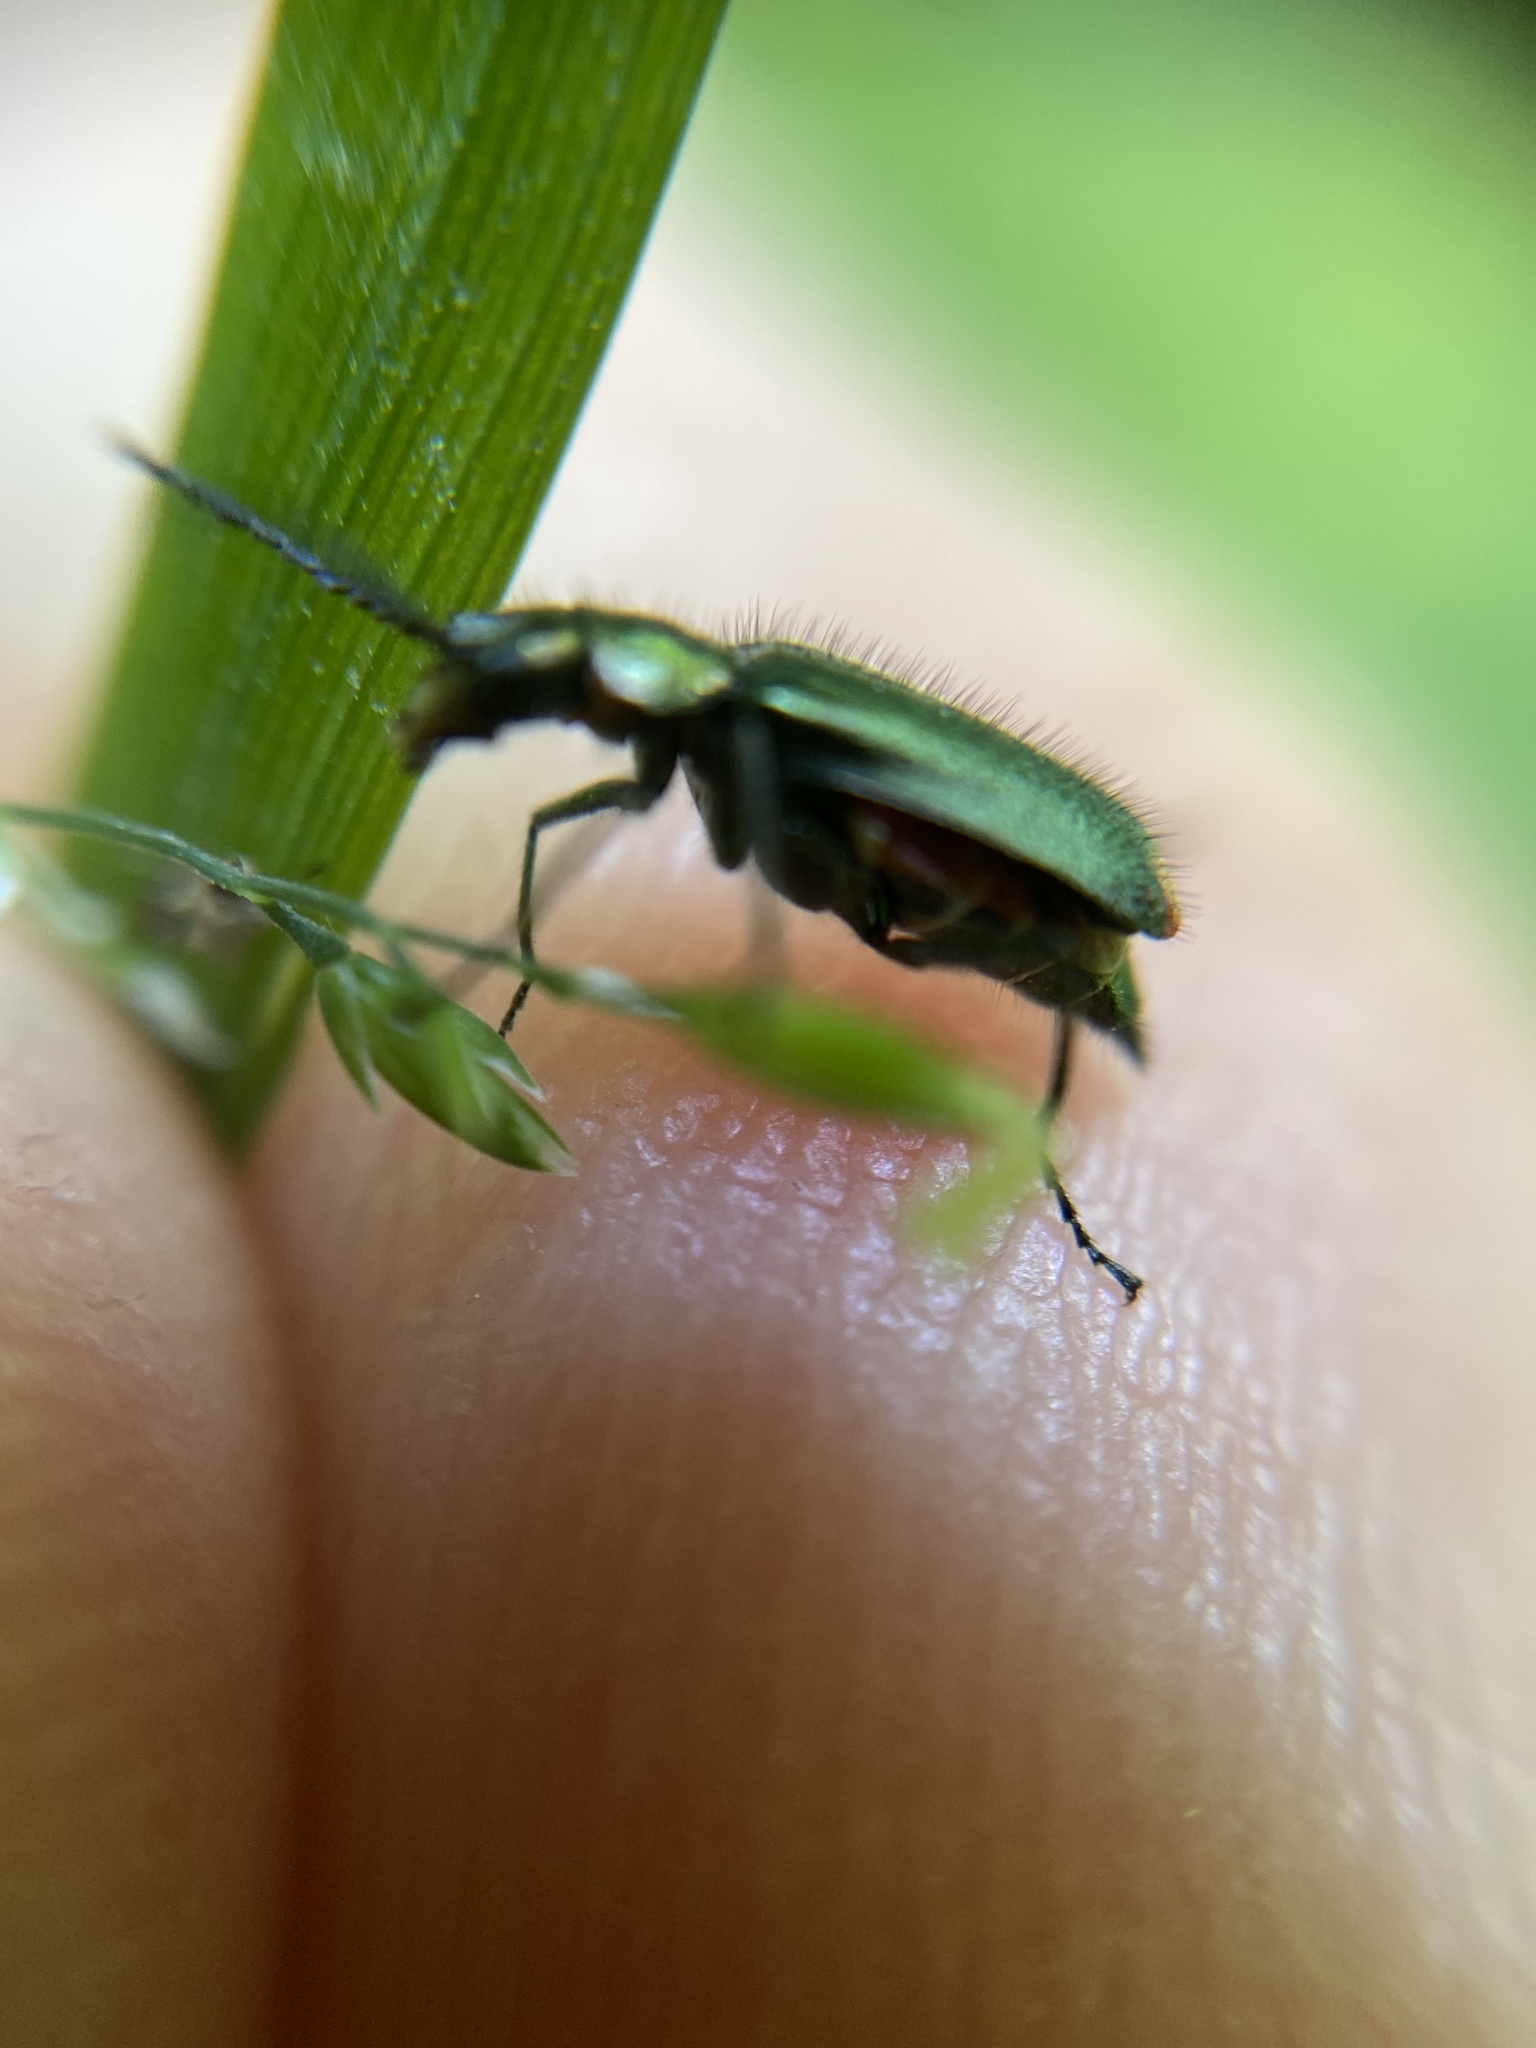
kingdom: Animalia
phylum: Arthropoda
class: Insecta
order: Coleoptera
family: Melyridae
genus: Malachius
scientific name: Malachius bipustulatus
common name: Malachite beetle
